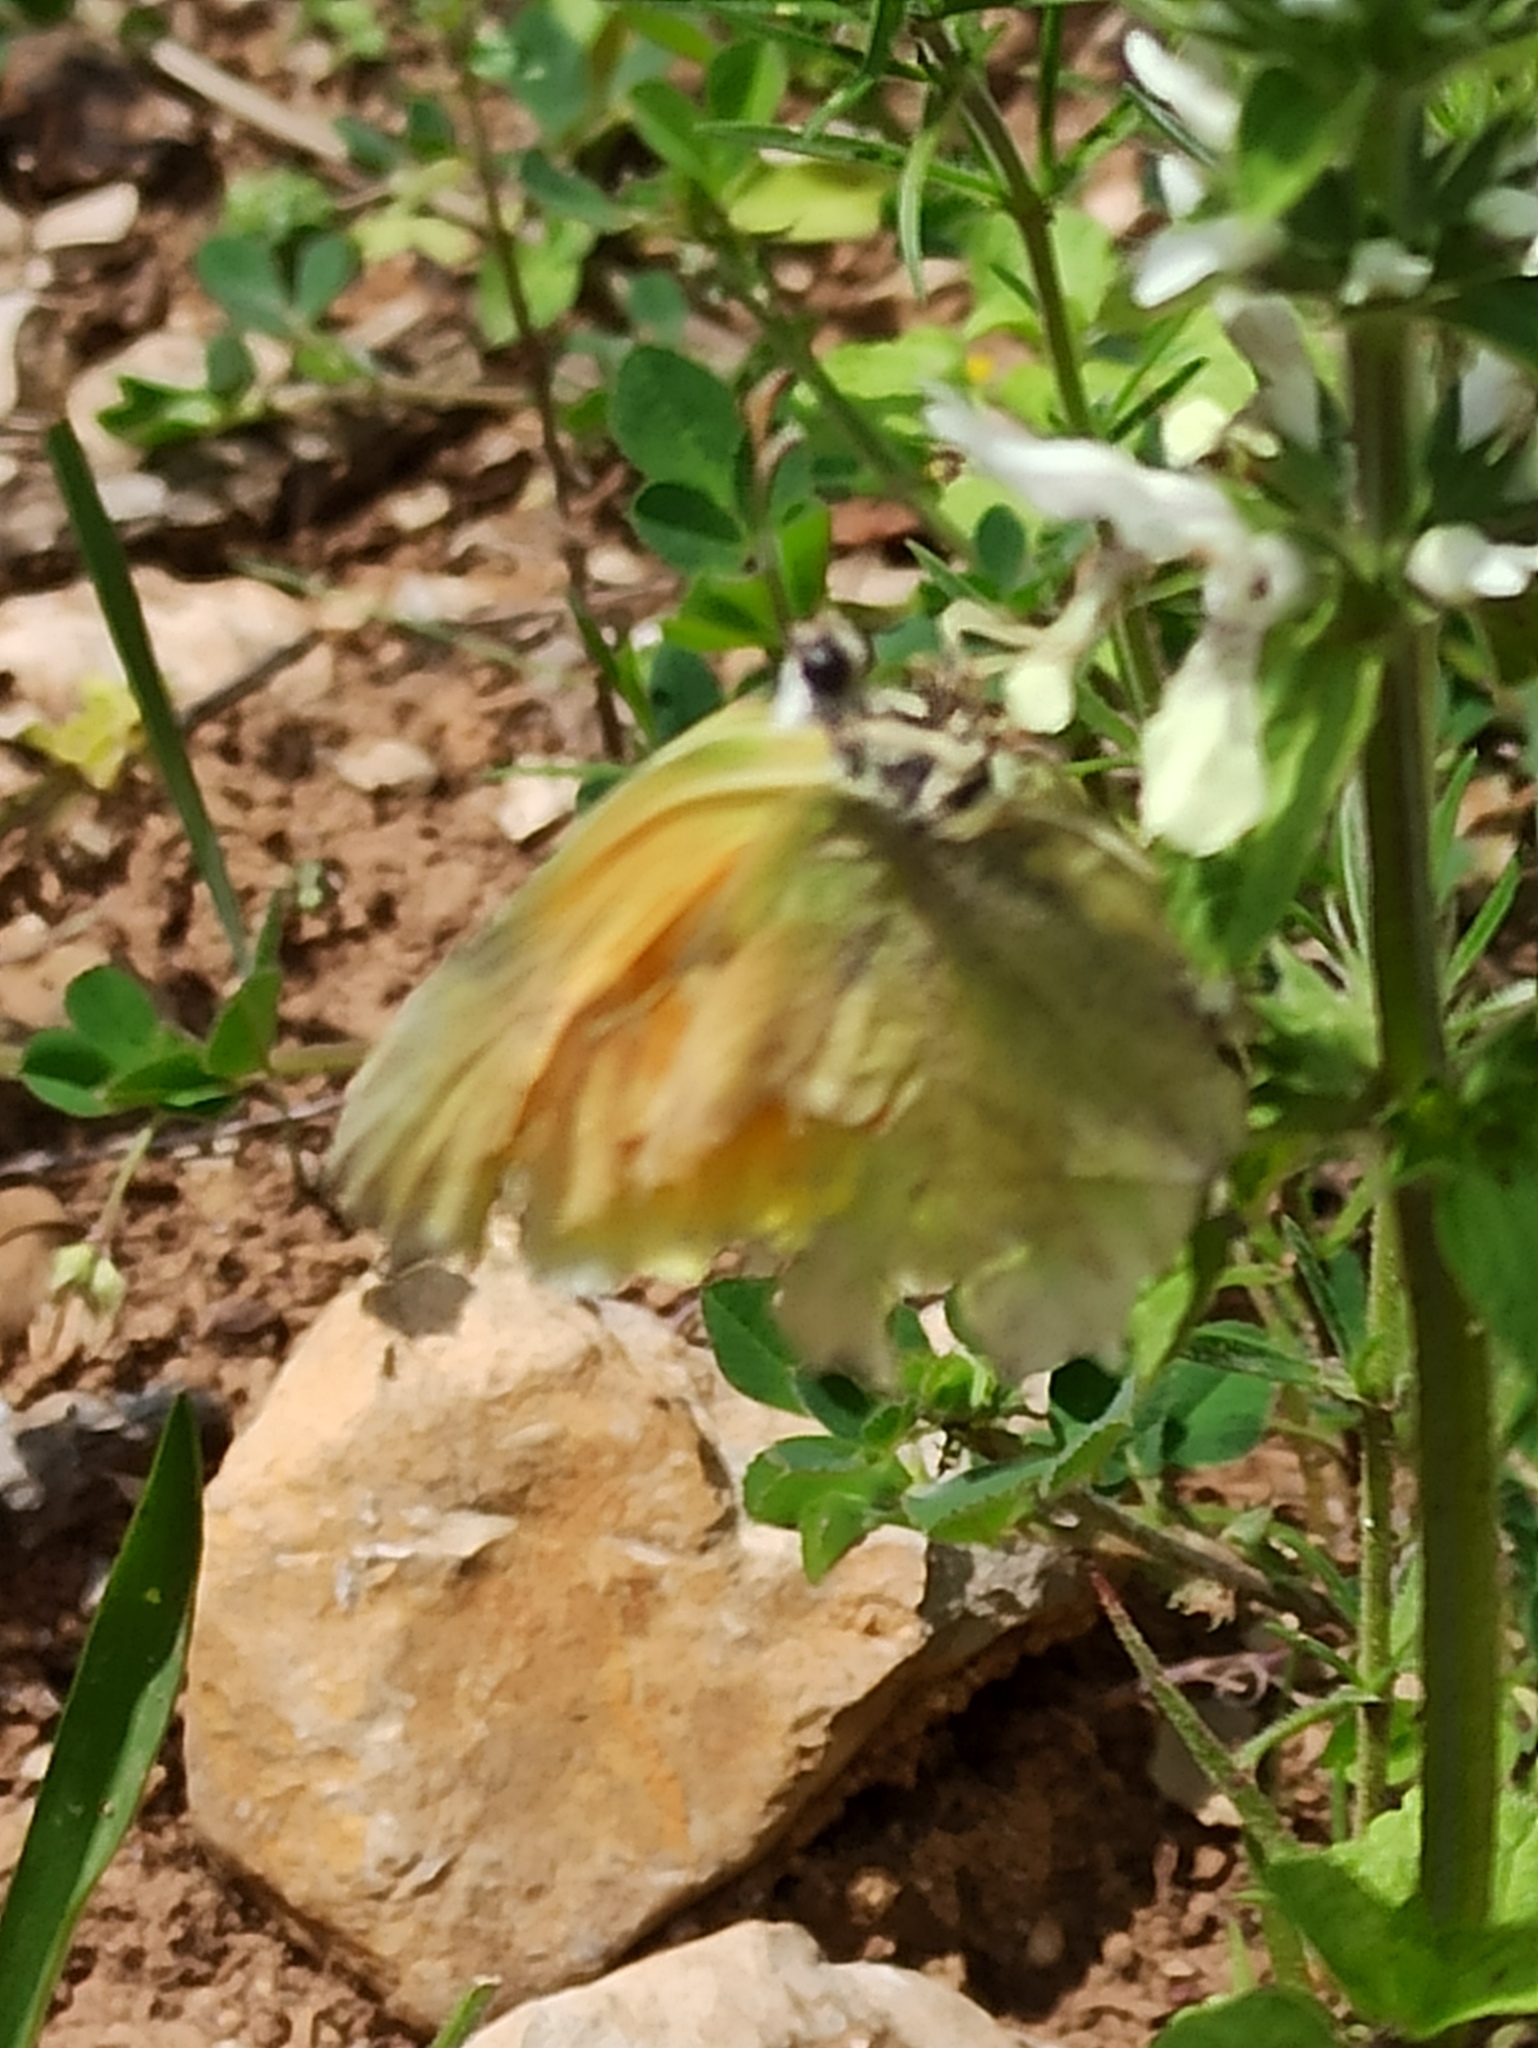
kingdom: Animalia
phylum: Arthropoda
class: Insecta
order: Lepidoptera
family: Pieridae
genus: Gonepteryx
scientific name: Gonepteryx cleopatra
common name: Cleopatra
